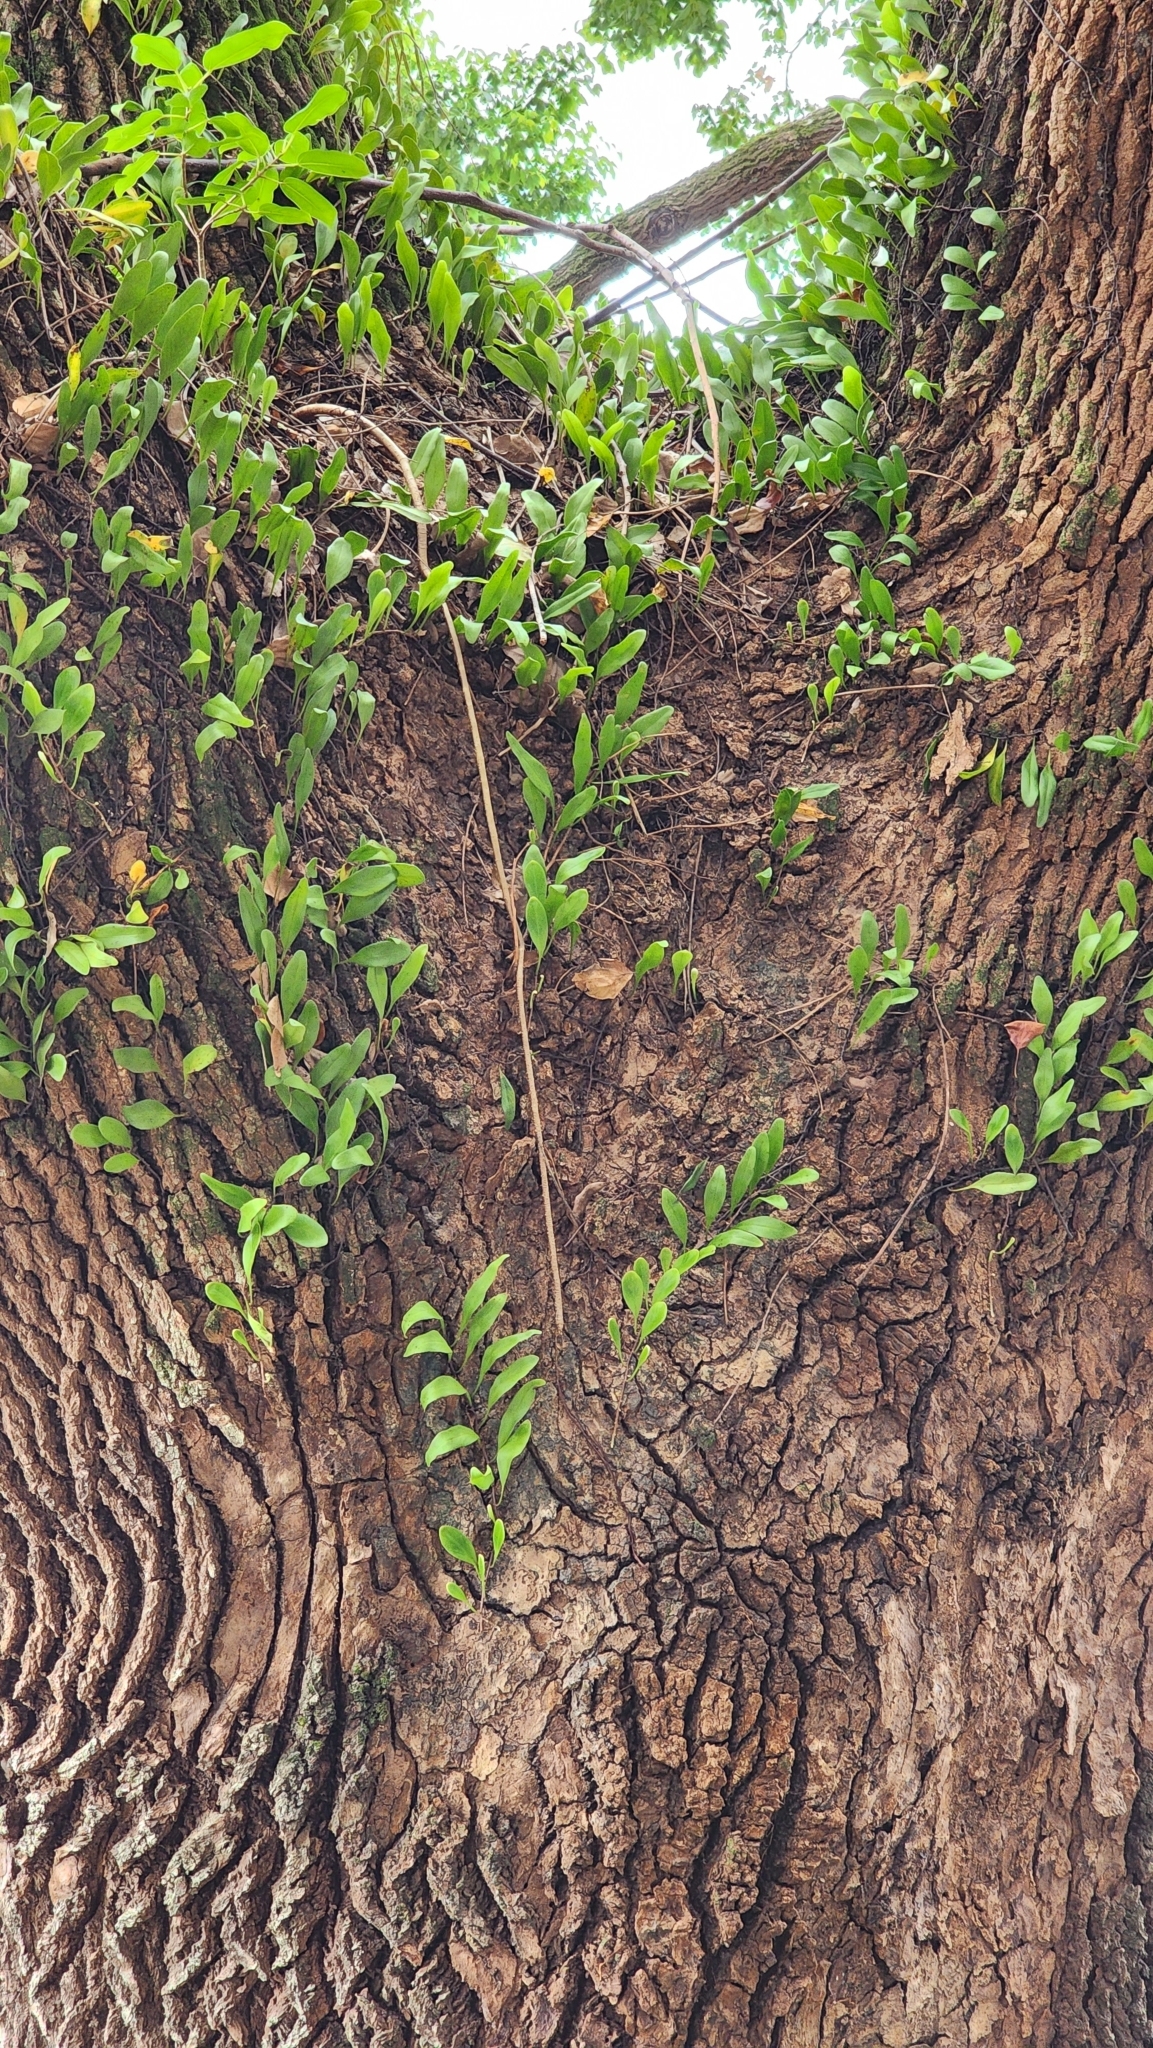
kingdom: Plantae
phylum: Tracheophyta
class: Polypodiopsida
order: Polypodiales
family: Polypodiaceae
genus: Pyrrosia
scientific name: Pyrrosia lanceolata
